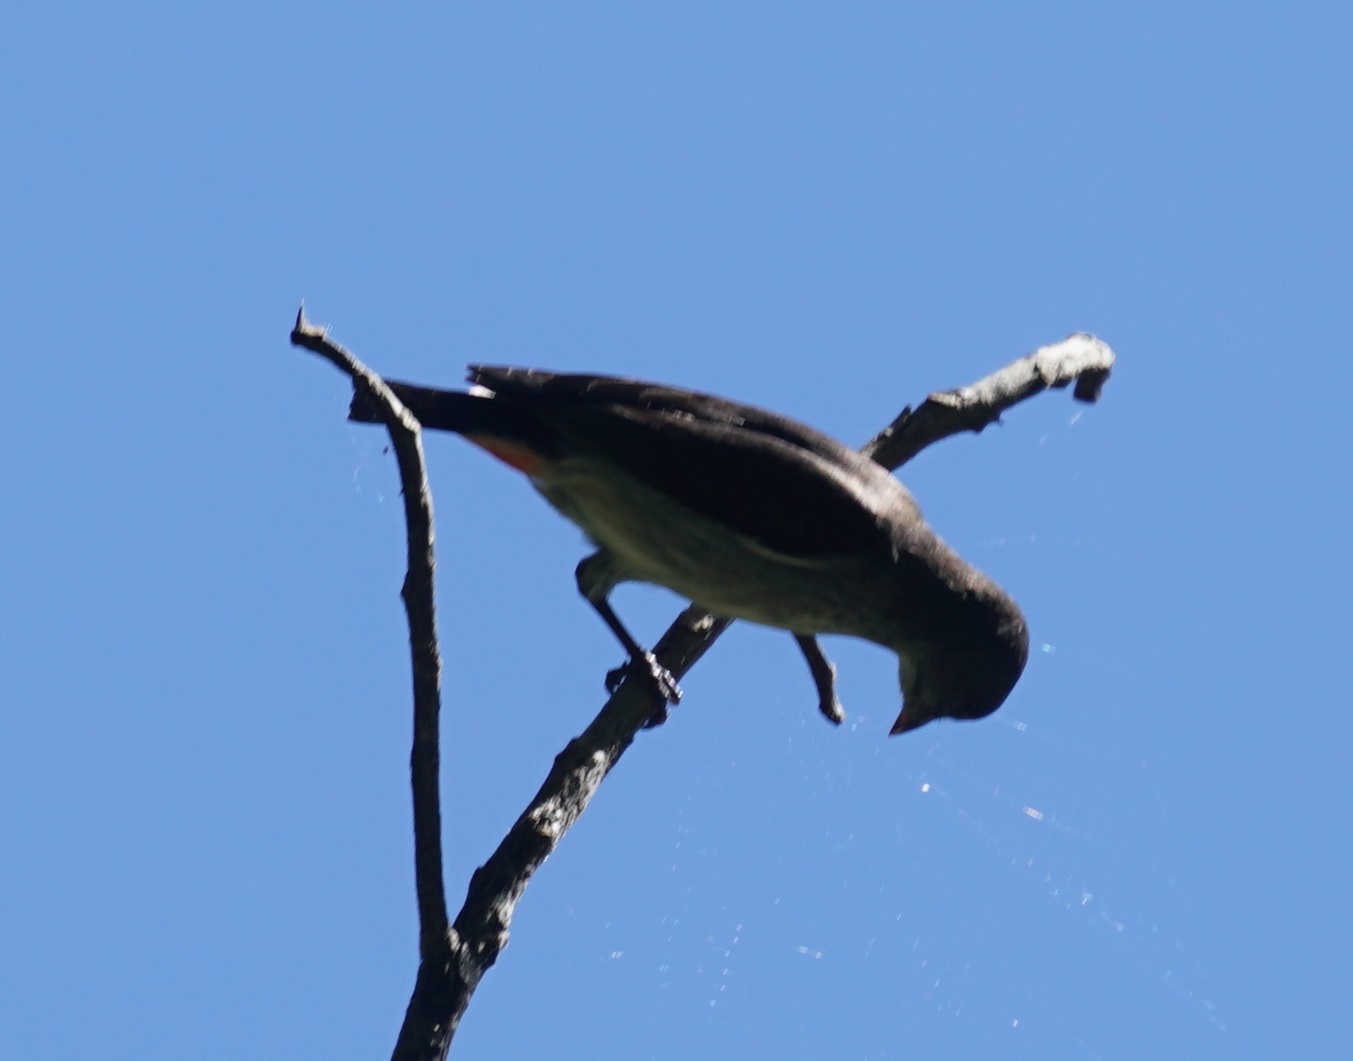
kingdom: Animalia
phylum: Chordata
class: Aves
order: Passeriformes
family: Dicaeidae
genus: Dicaeum
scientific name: Dicaeum hirundinaceum
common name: Mistletoebird
